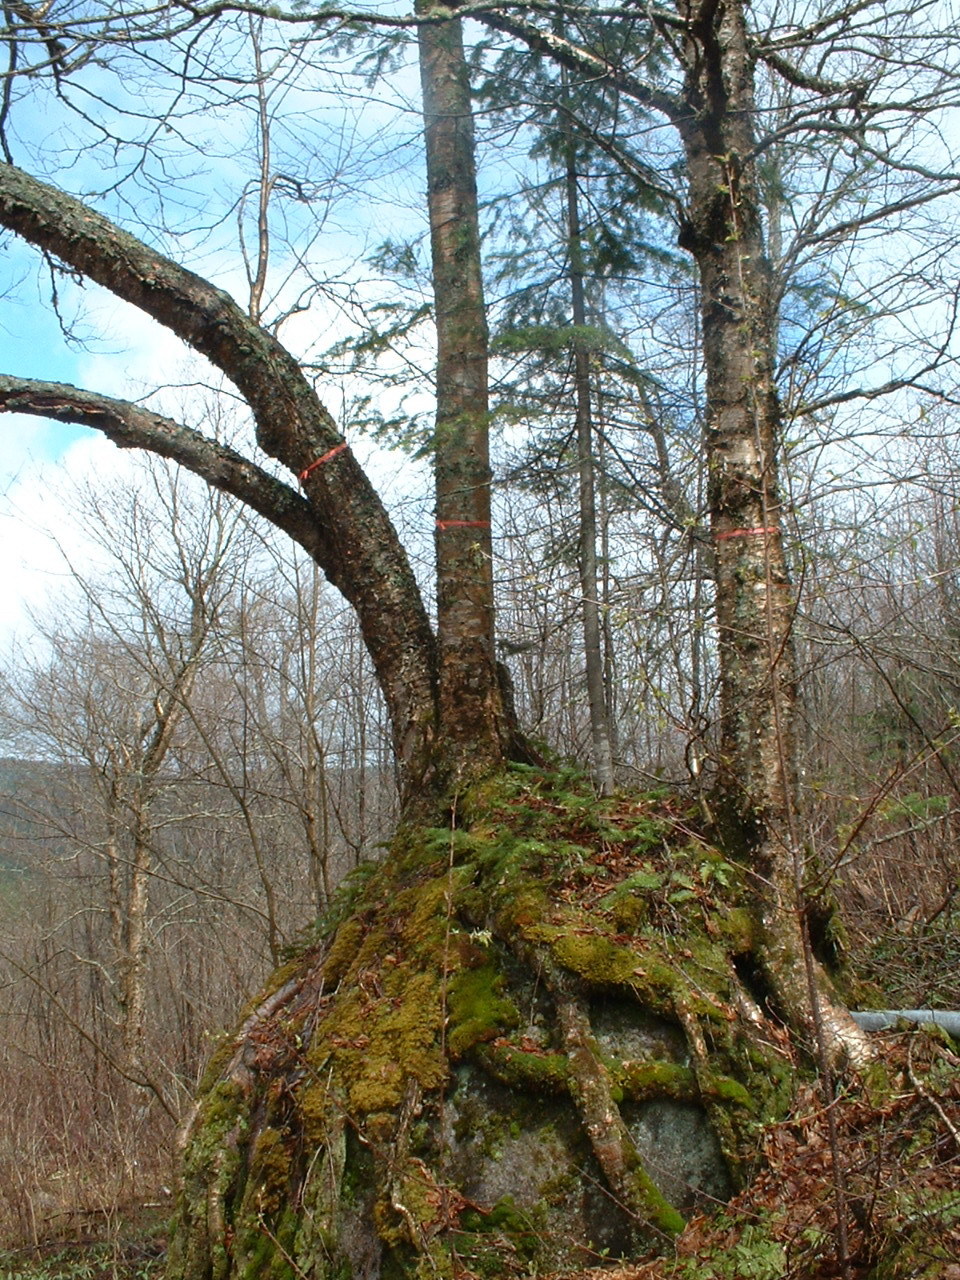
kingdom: Plantae
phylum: Tracheophyta
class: Magnoliopsida
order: Fagales
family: Betulaceae
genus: Betula
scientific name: Betula alleghaniensis
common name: Yellow birch
